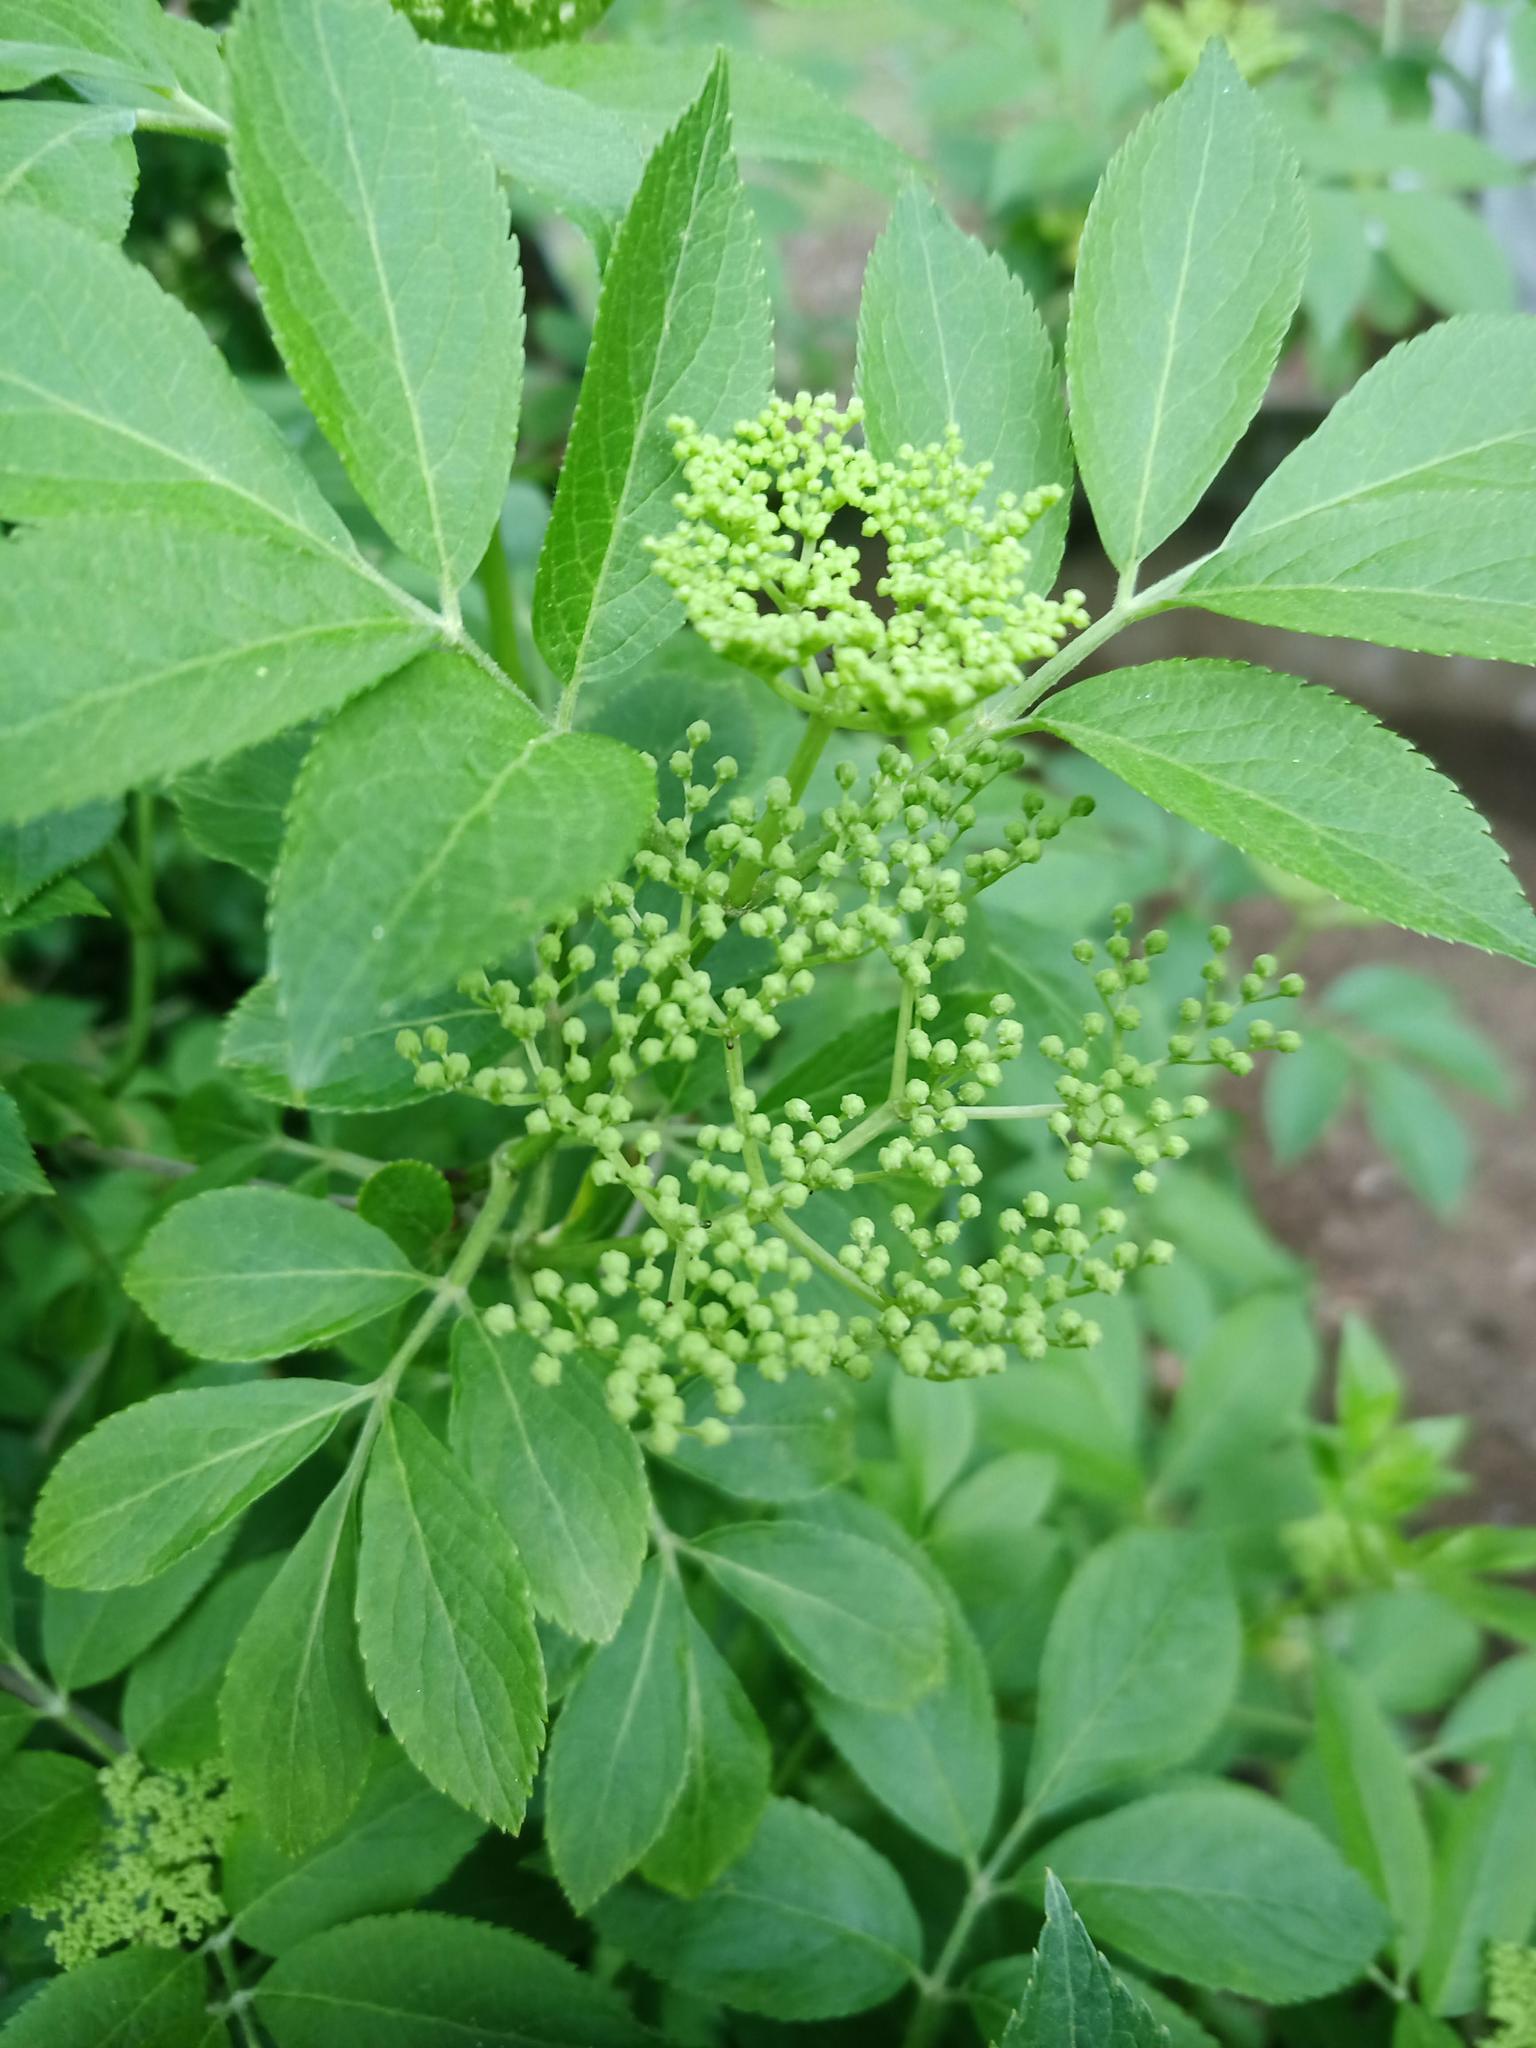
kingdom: Plantae
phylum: Tracheophyta
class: Magnoliopsida
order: Dipsacales
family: Viburnaceae
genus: Sambucus
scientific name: Sambucus nigra
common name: Elder
